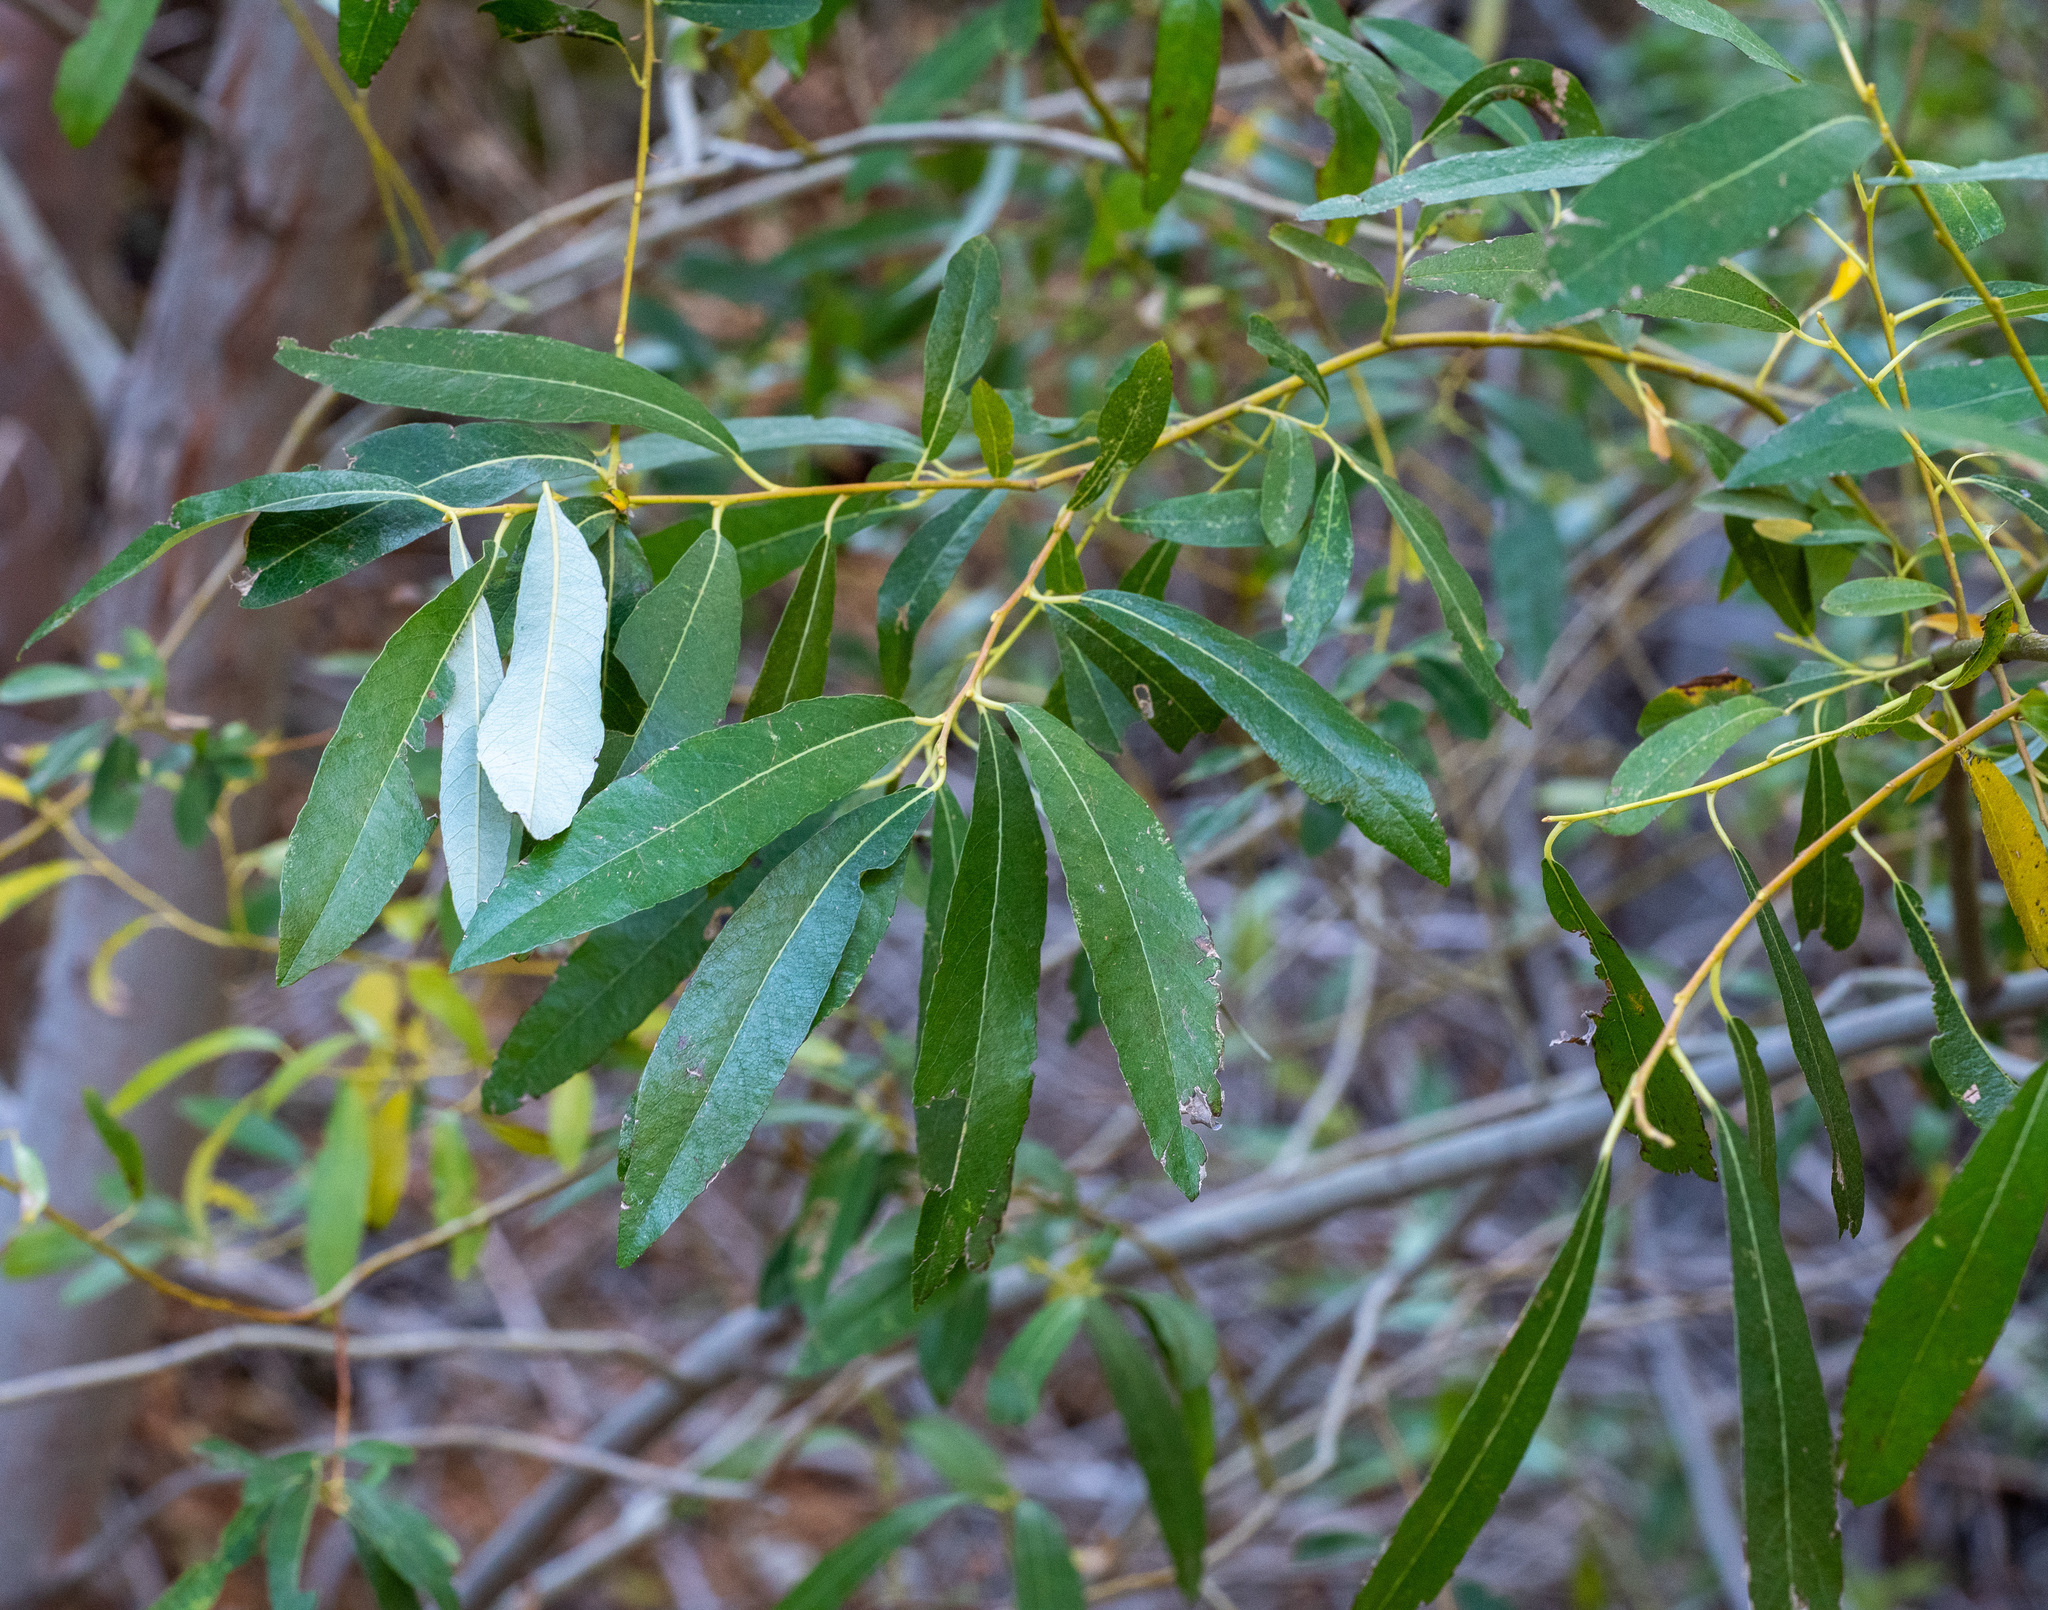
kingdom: Plantae
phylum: Tracheophyta
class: Magnoliopsida
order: Malpighiales
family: Salicaceae
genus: Salix
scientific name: Salix lasiolepis
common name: Arroyo willow
